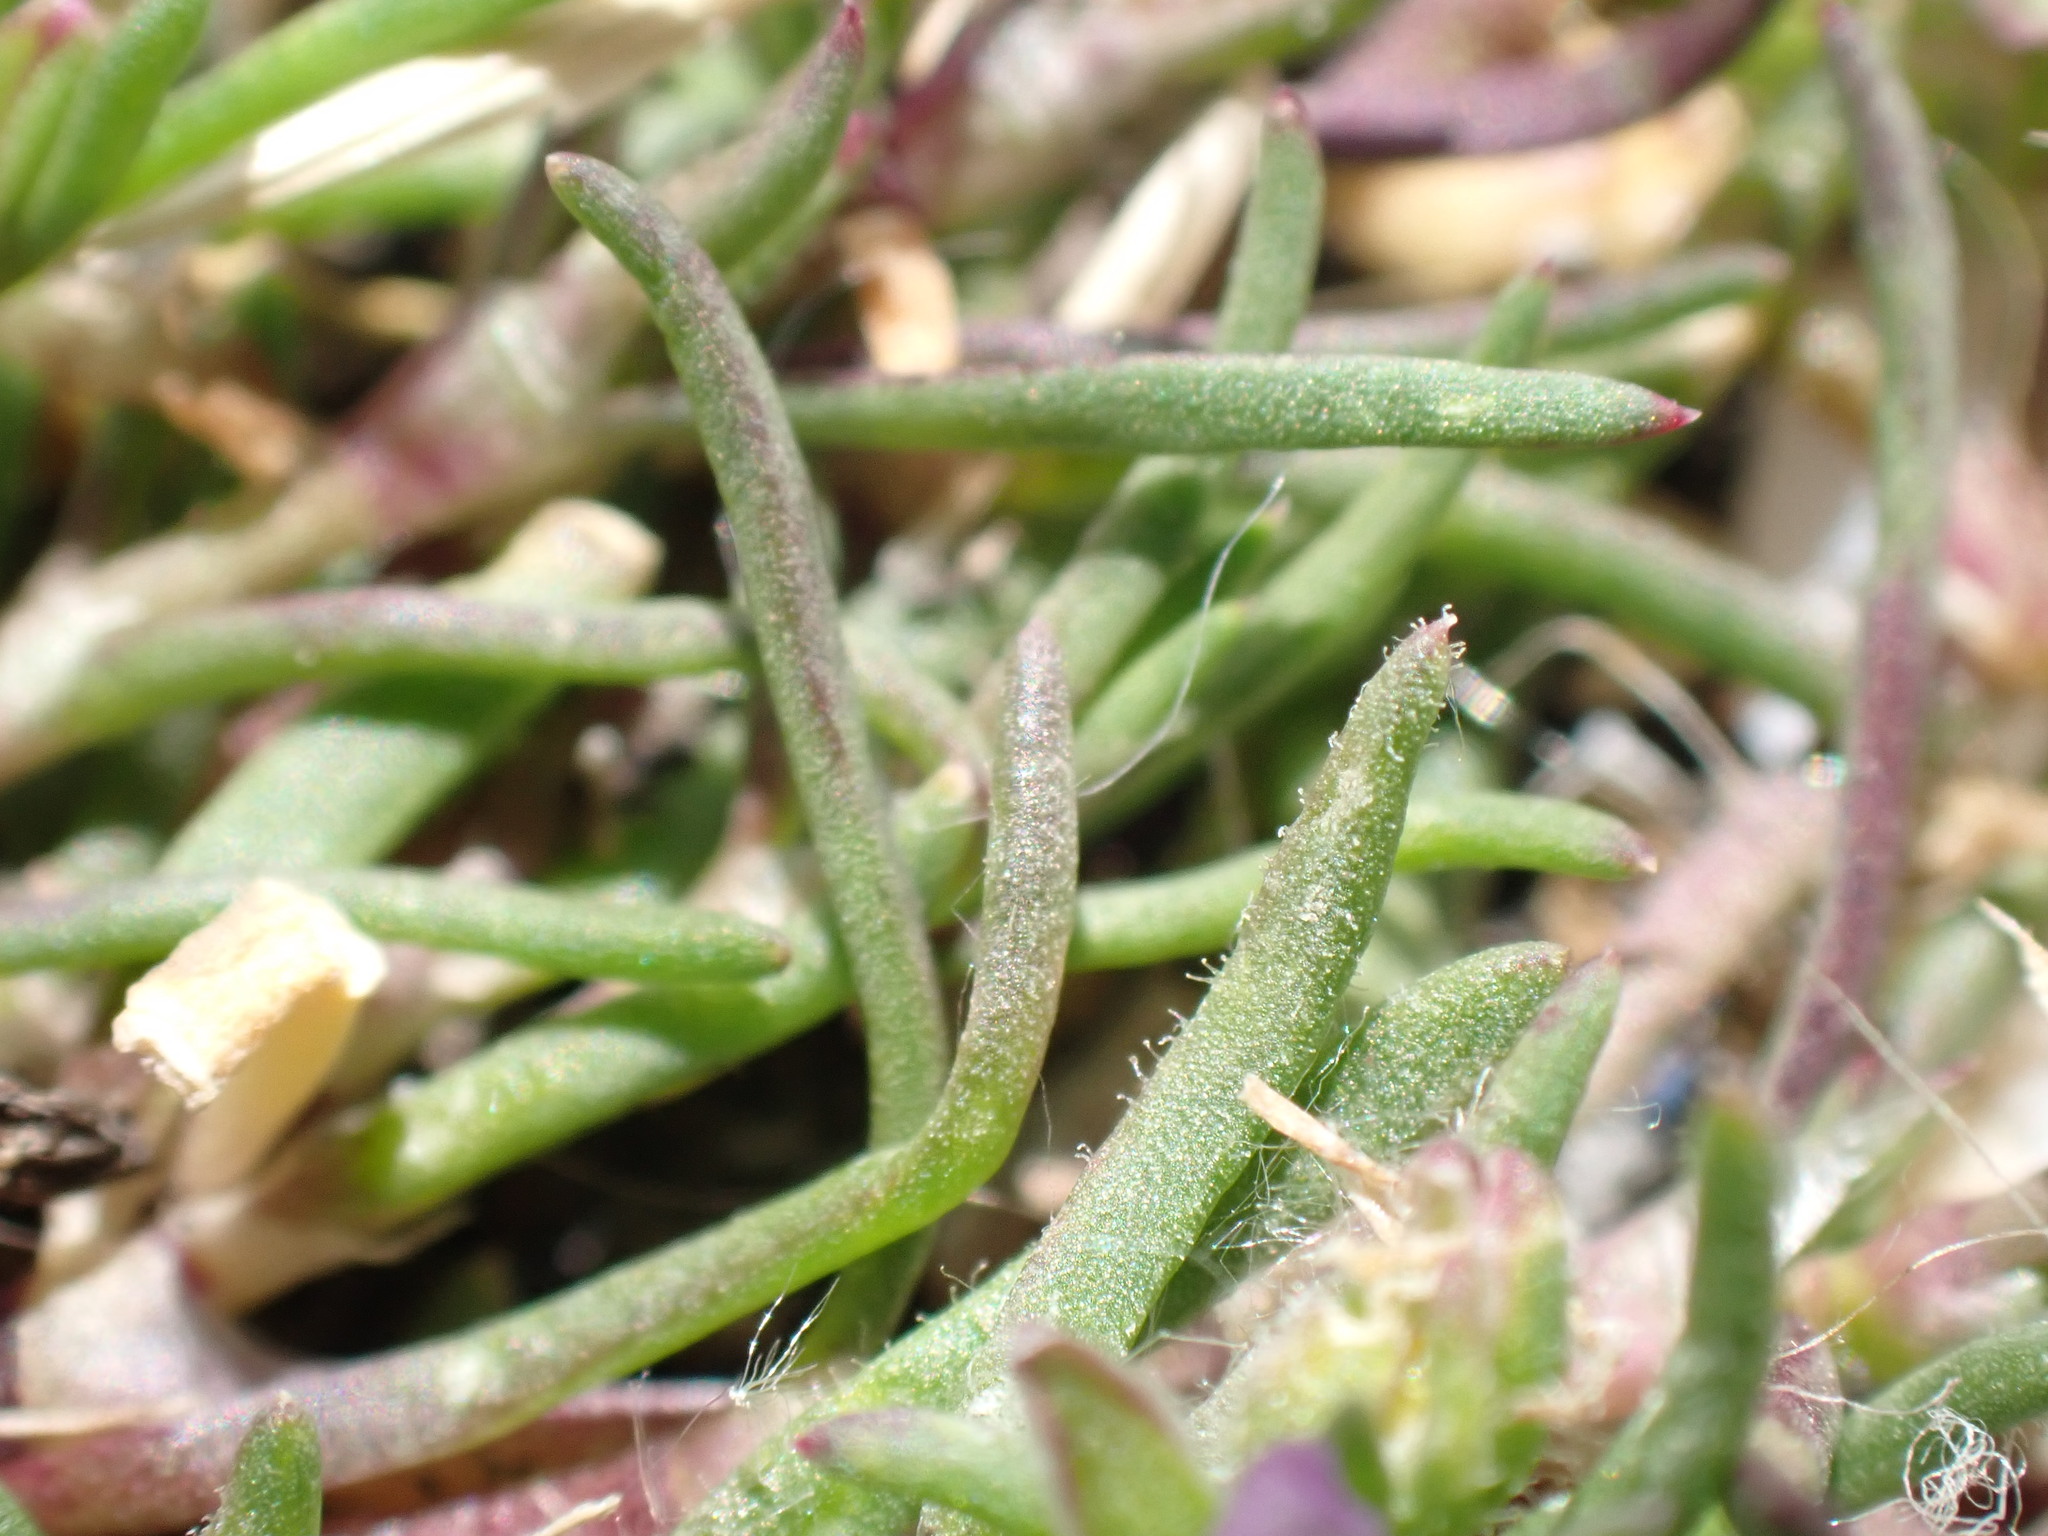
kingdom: Plantae
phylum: Tracheophyta
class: Magnoliopsida
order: Caryophyllales
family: Caryophyllaceae
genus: Spergularia
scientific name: Spergularia marina
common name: Lesser sea-spurrey
